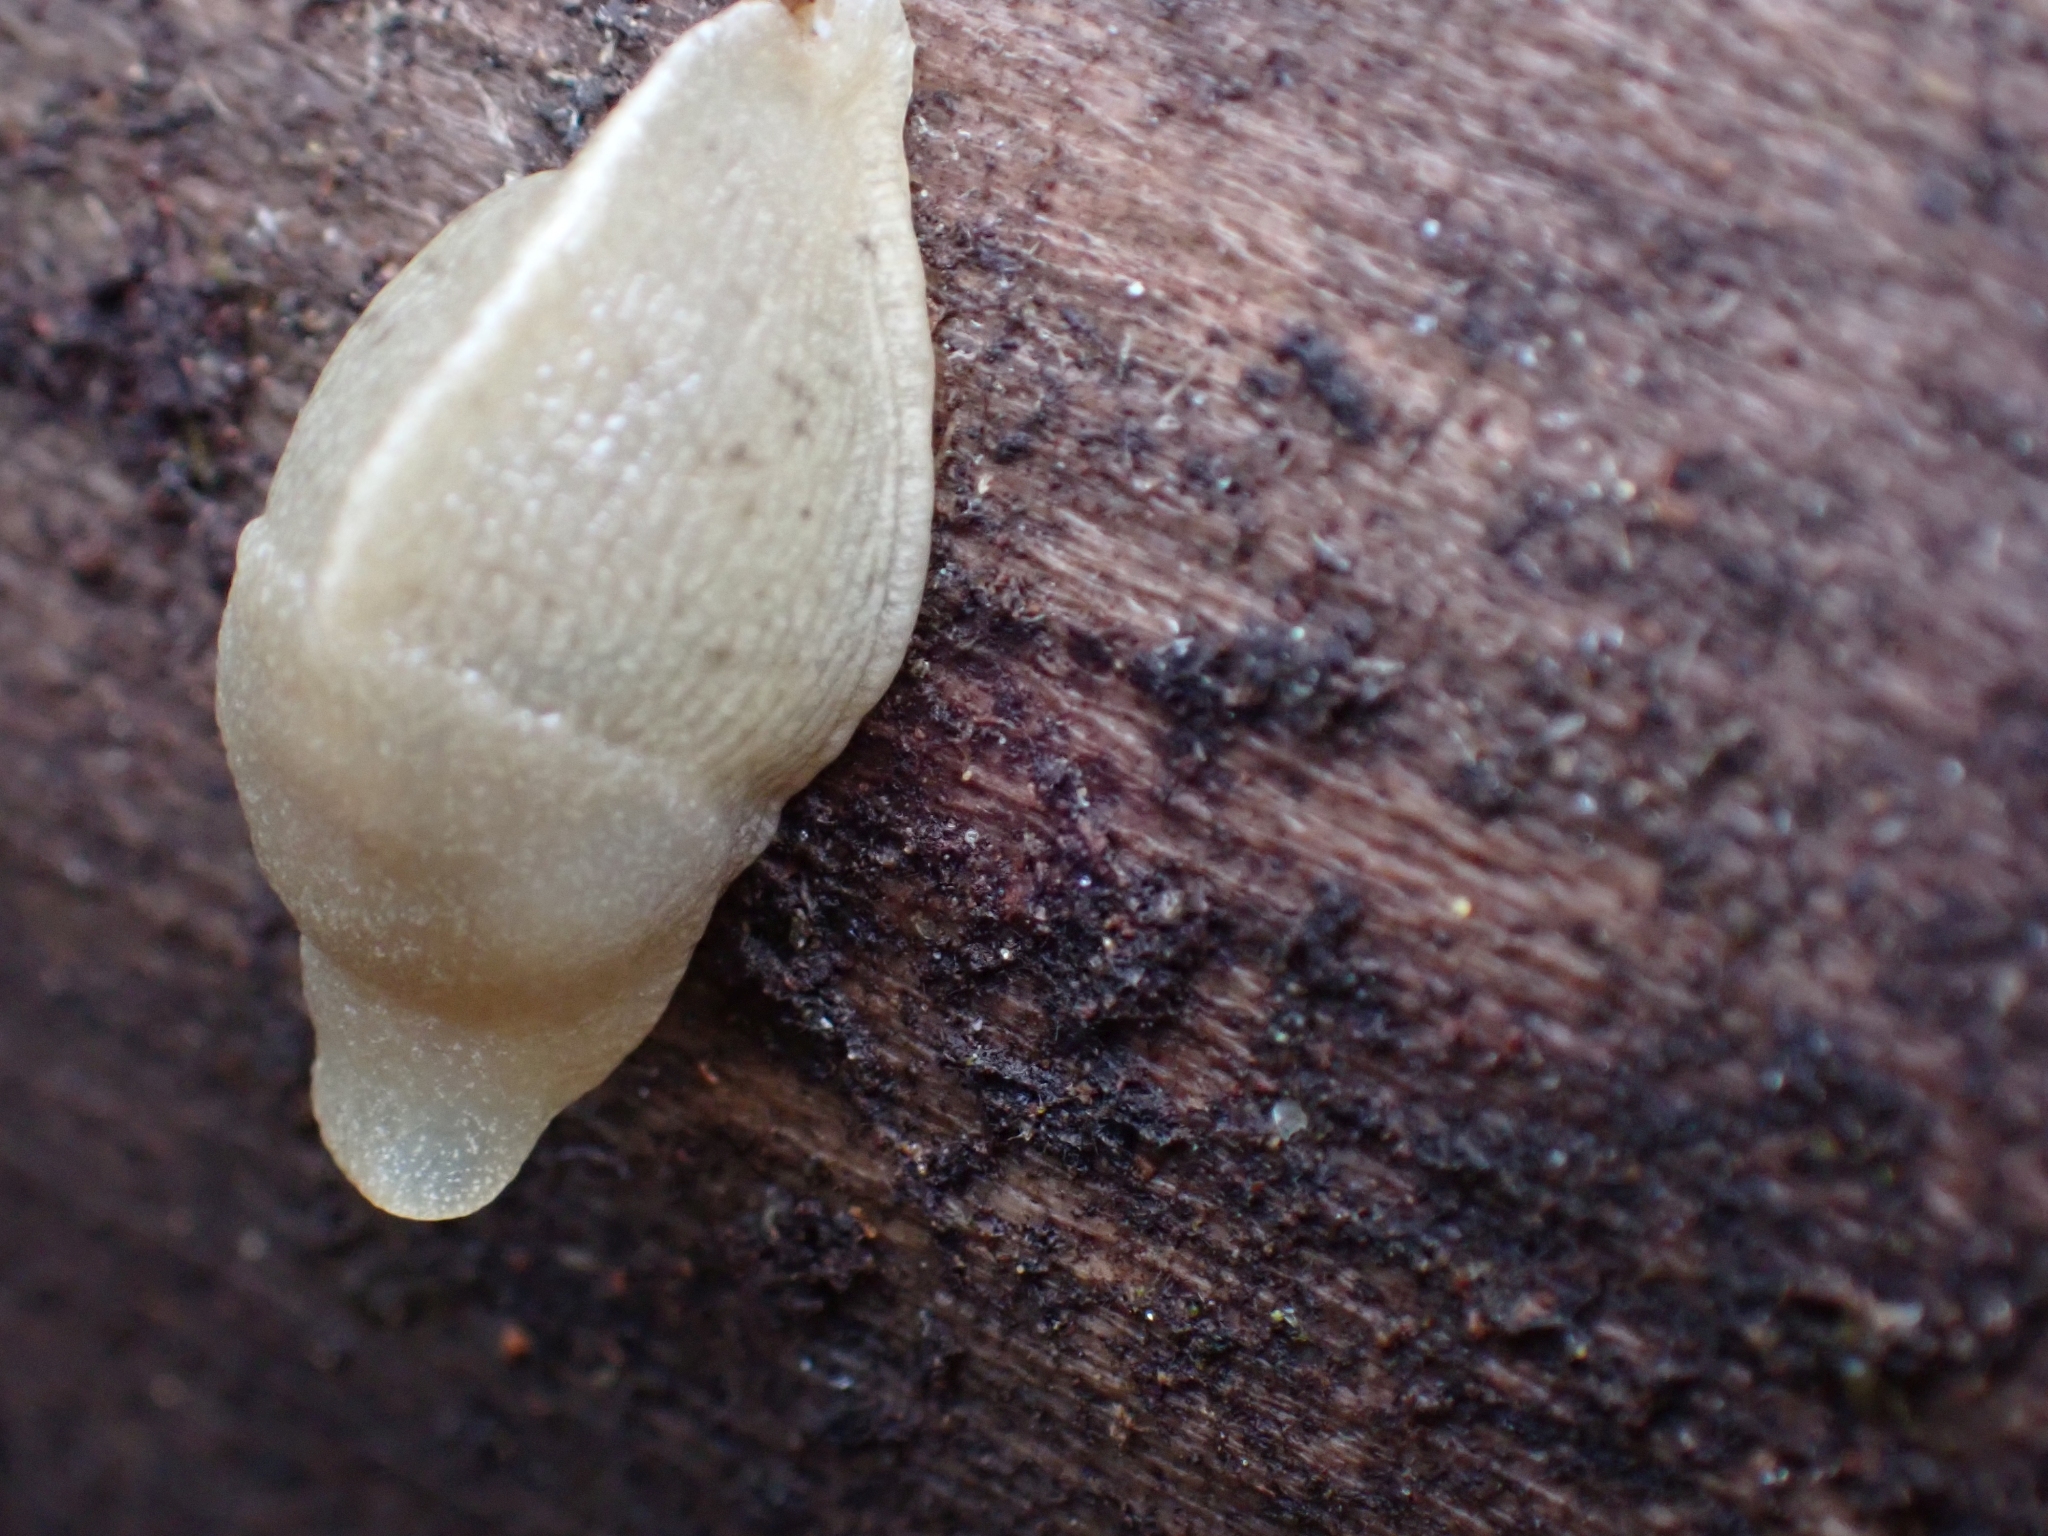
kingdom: Animalia
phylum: Mollusca
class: Gastropoda
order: Stylommatophora
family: Ariolimacidae
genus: Ariolimax
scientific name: Ariolimax columbianus
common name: Pacific banana slug
